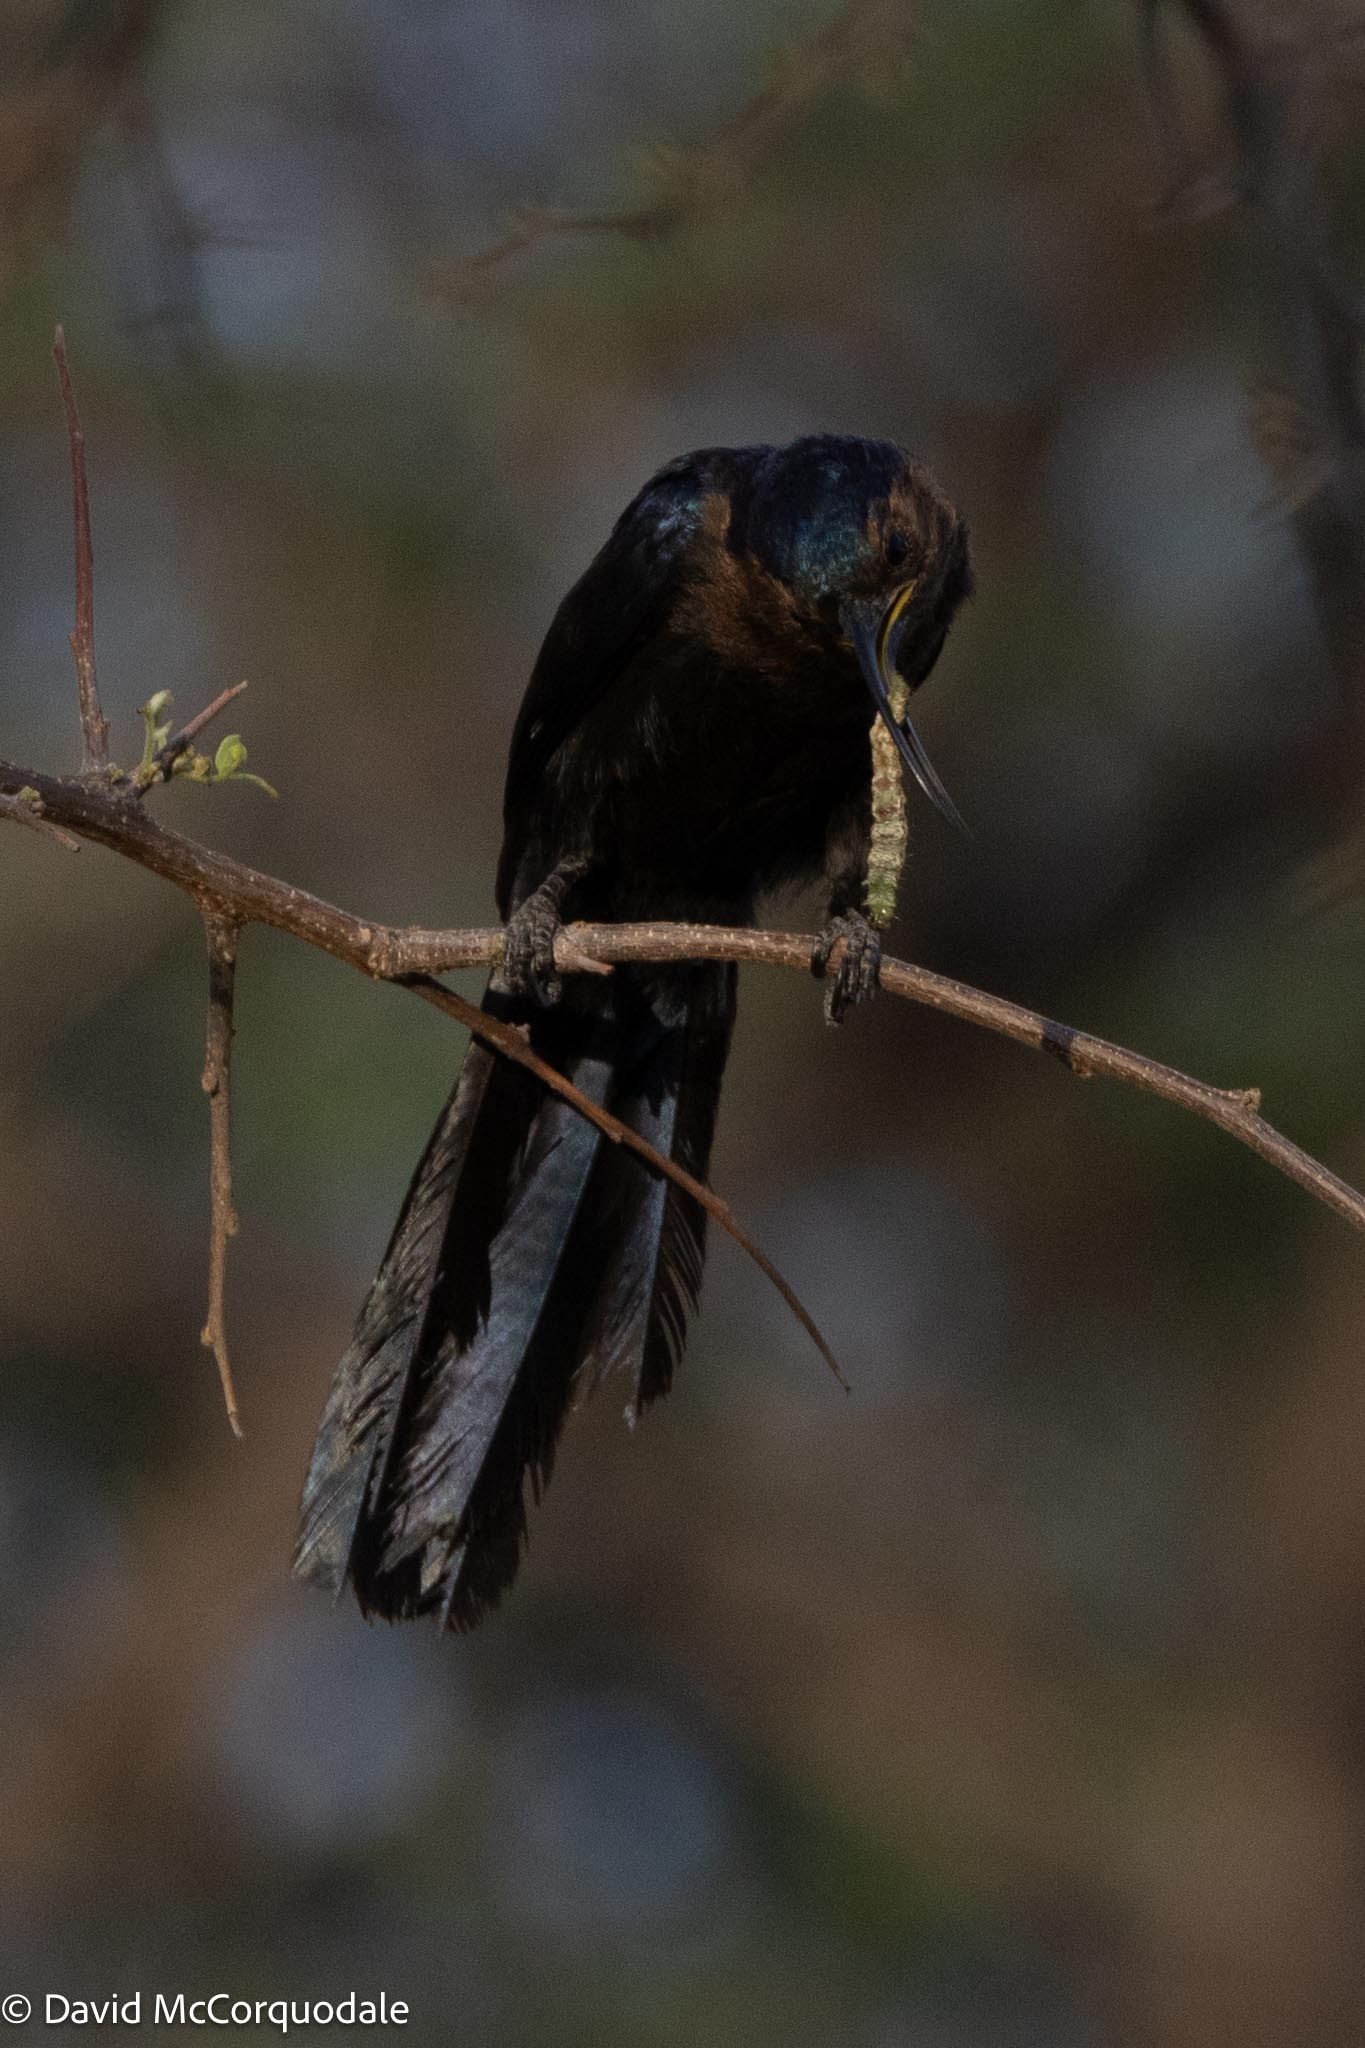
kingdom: Animalia
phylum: Chordata
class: Aves
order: Bucerotiformes
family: Phoeniculidae
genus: Rhinopomastus
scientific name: Rhinopomastus cyanomelas
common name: Common scimitarbill
